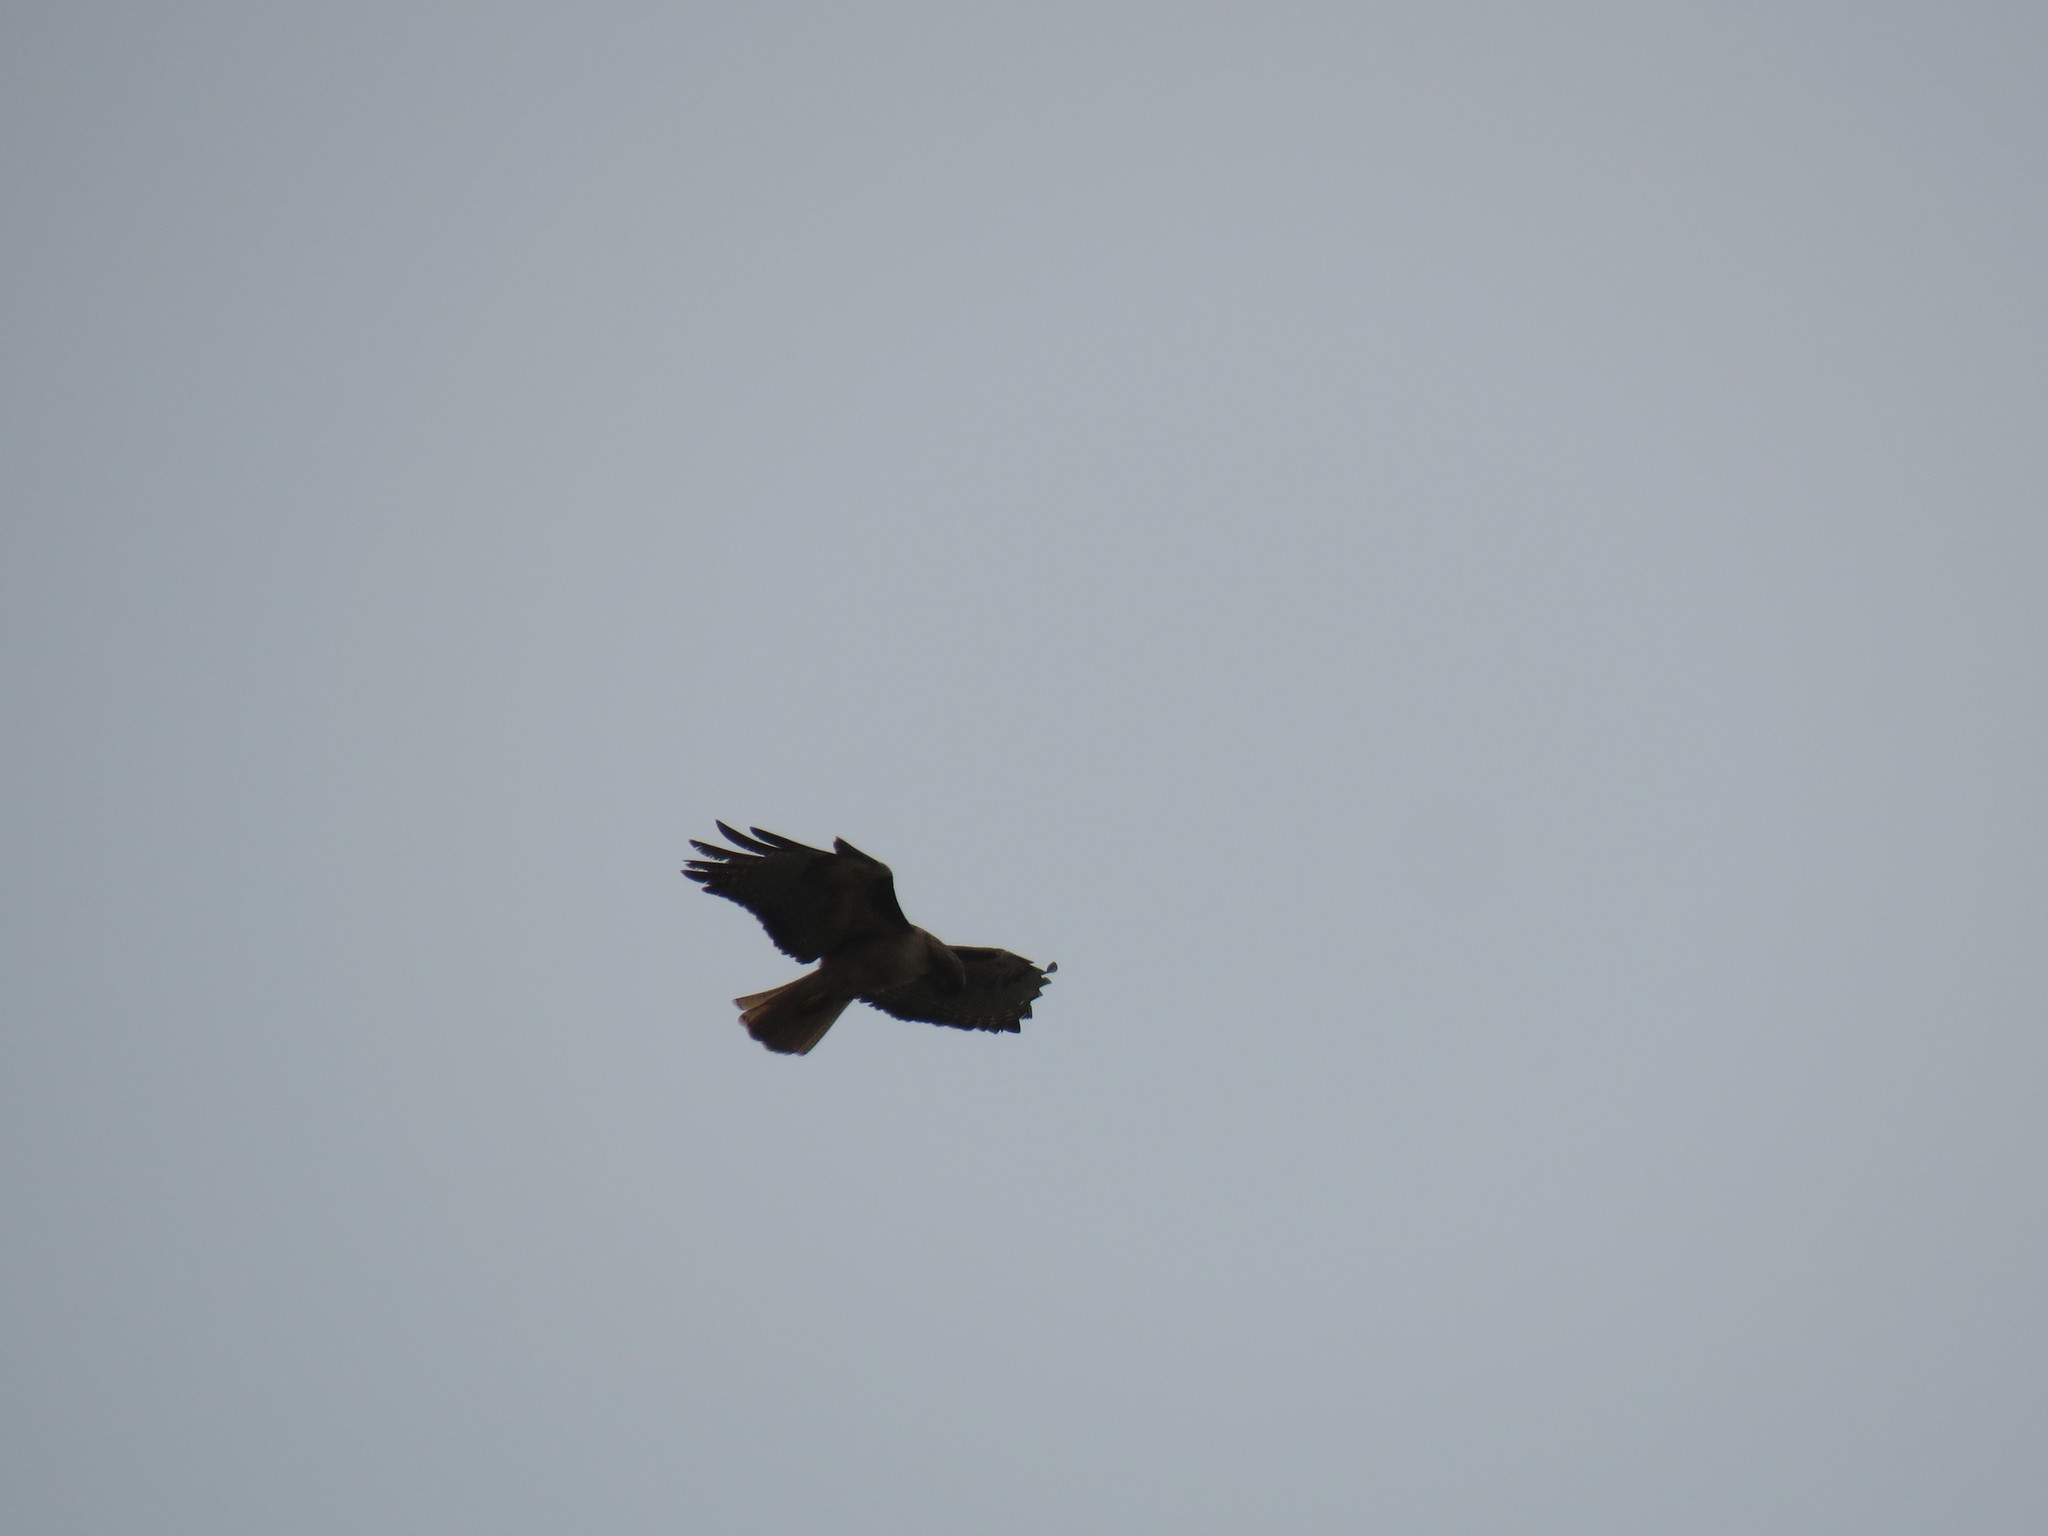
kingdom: Animalia
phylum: Chordata
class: Aves
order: Accipitriformes
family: Accipitridae
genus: Buteo
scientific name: Buteo jamaicensis
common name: Red-tailed hawk
